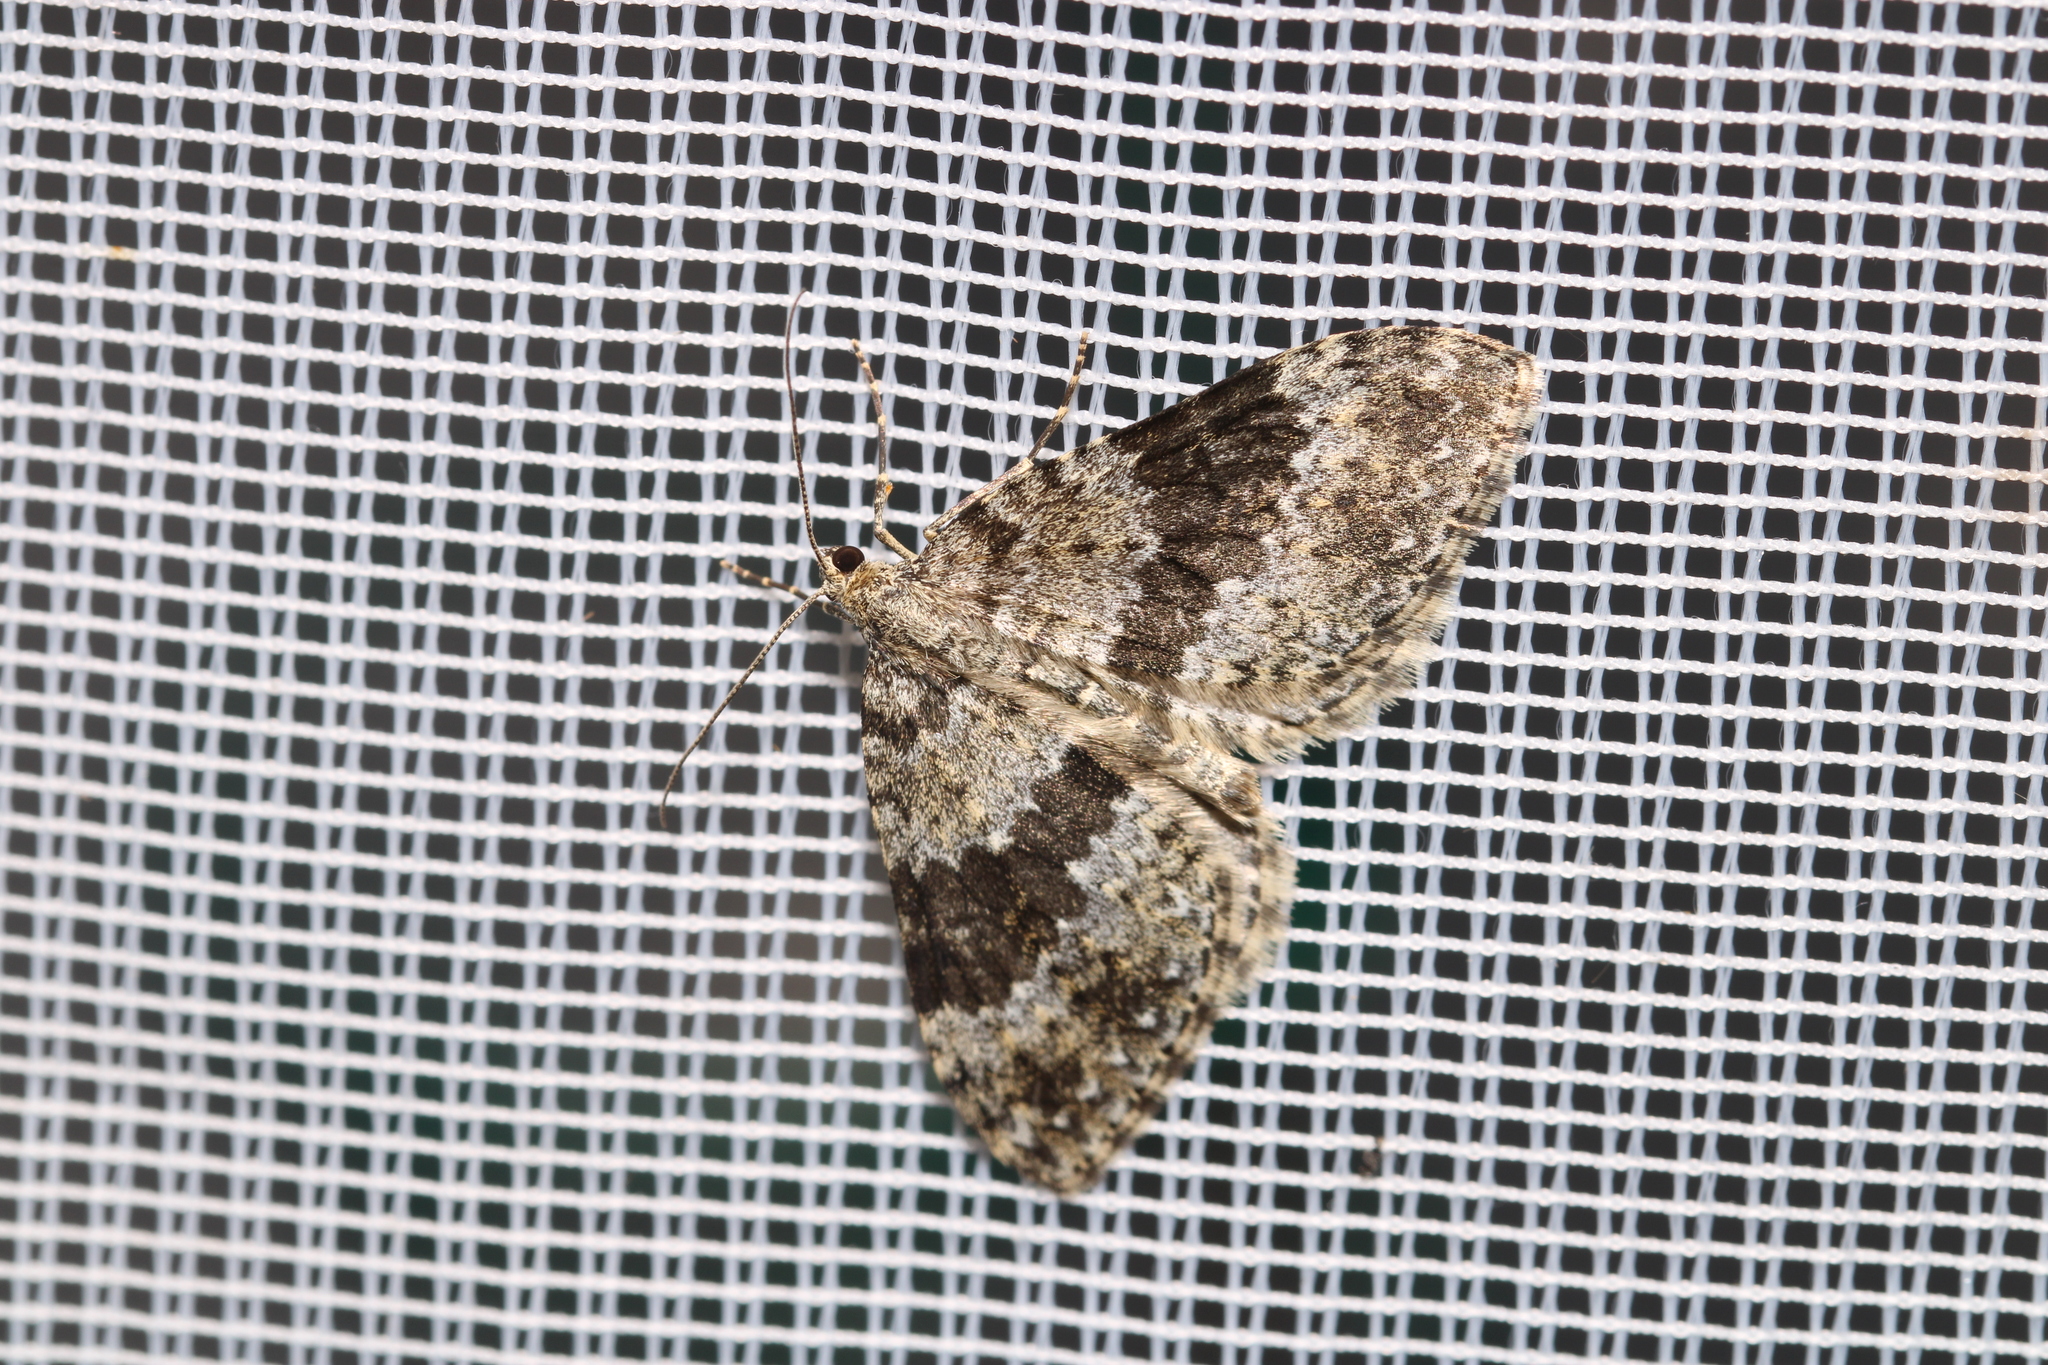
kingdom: Animalia
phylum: Arthropoda
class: Insecta
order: Lepidoptera
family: Geometridae
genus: Entephria
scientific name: Entephria caesiata
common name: Grey mountain moth
